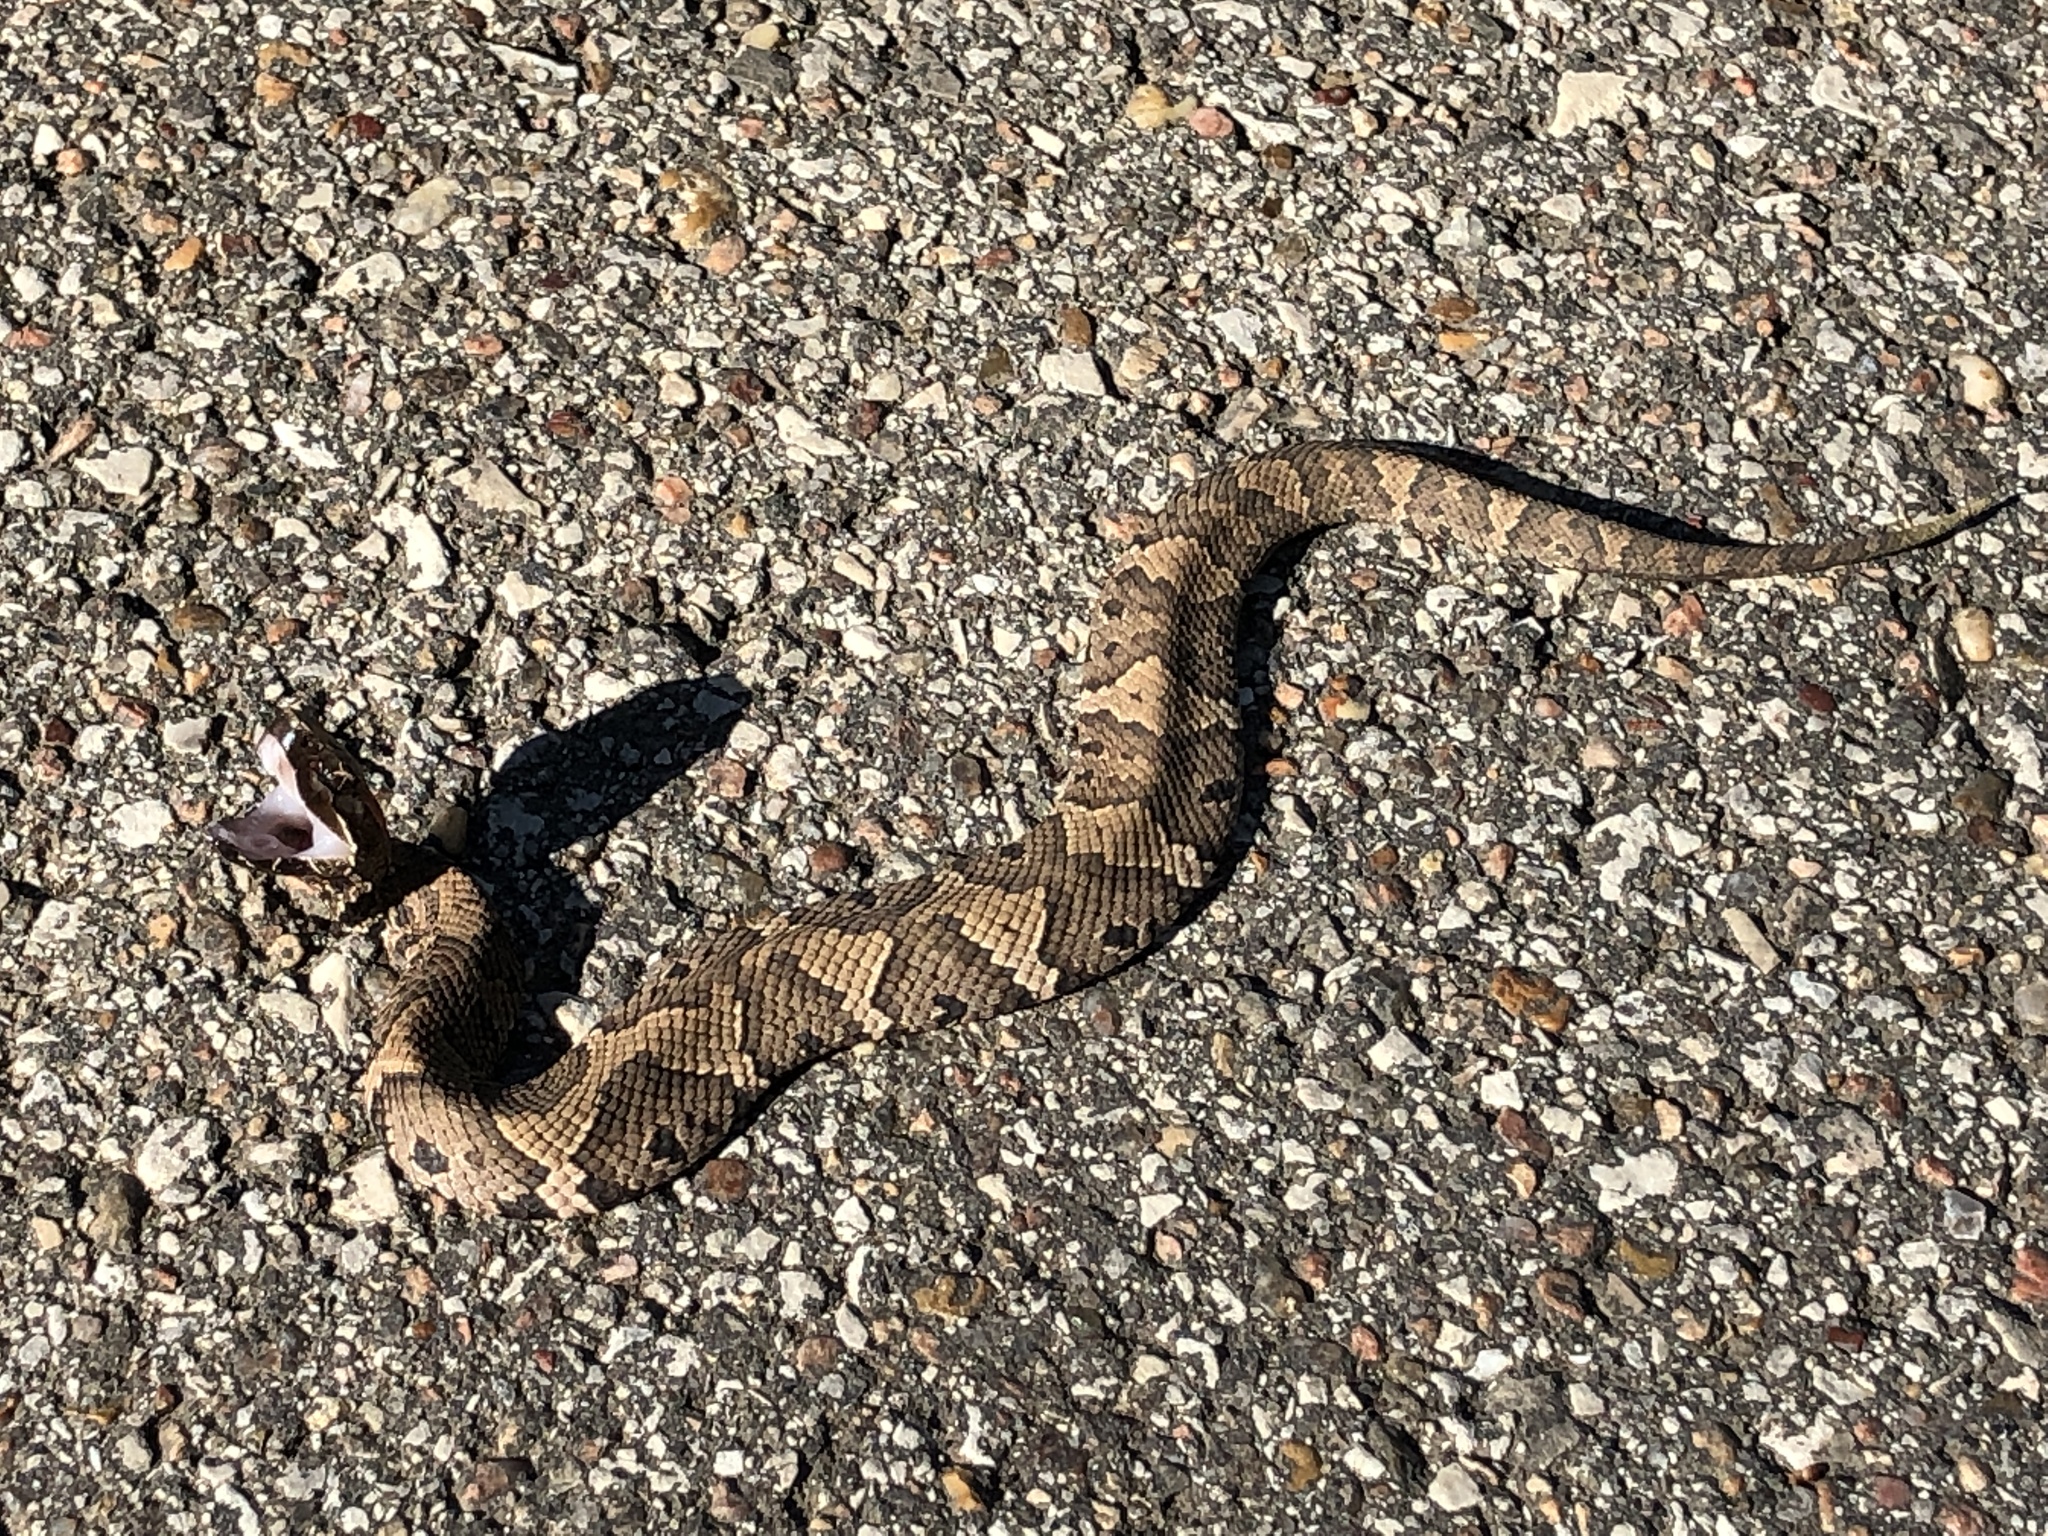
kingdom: Animalia
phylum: Chordata
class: Squamata
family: Viperidae
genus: Agkistrodon
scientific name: Agkistrodon piscivorus
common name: Cottonmouth
